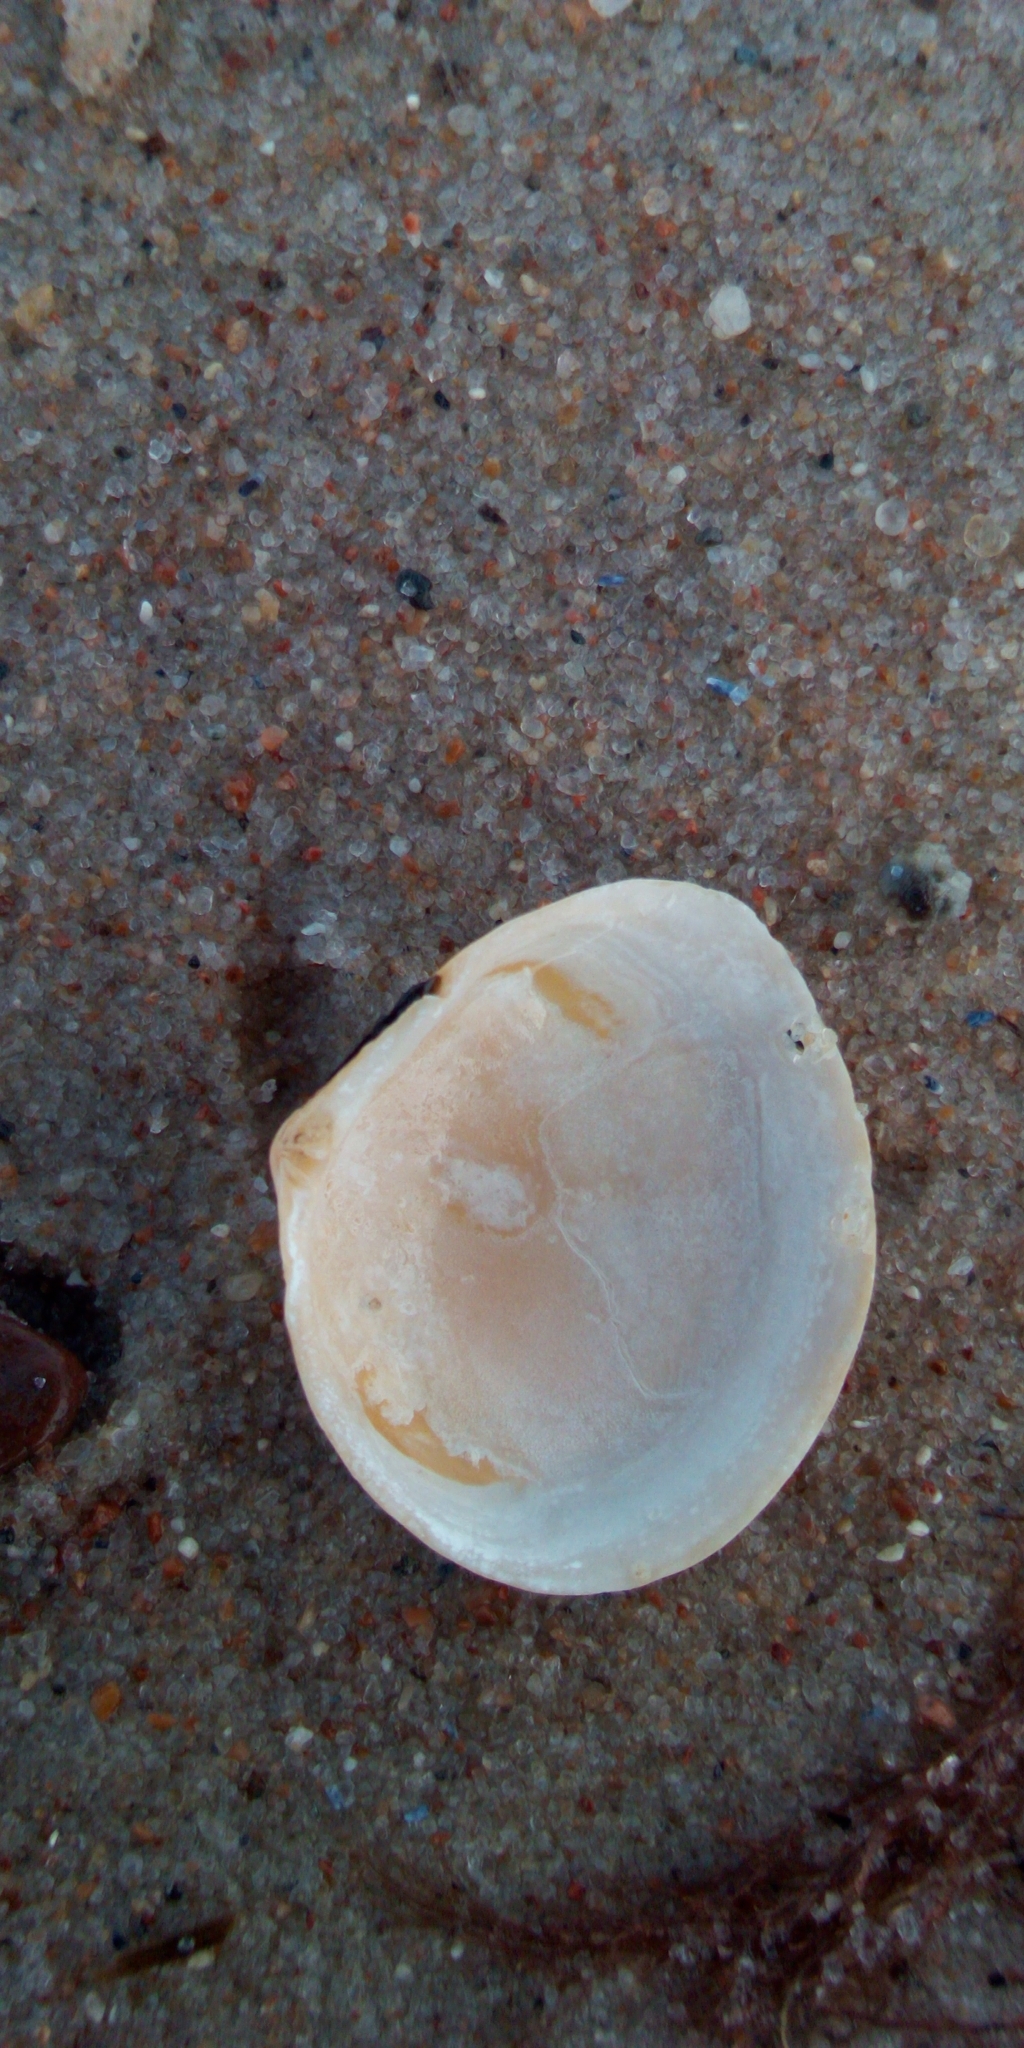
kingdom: Animalia
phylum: Mollusca
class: Bivalvia
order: Cardiida
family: Tellinidae
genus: Macoma
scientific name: Macoma balthica
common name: Baltic tellin
